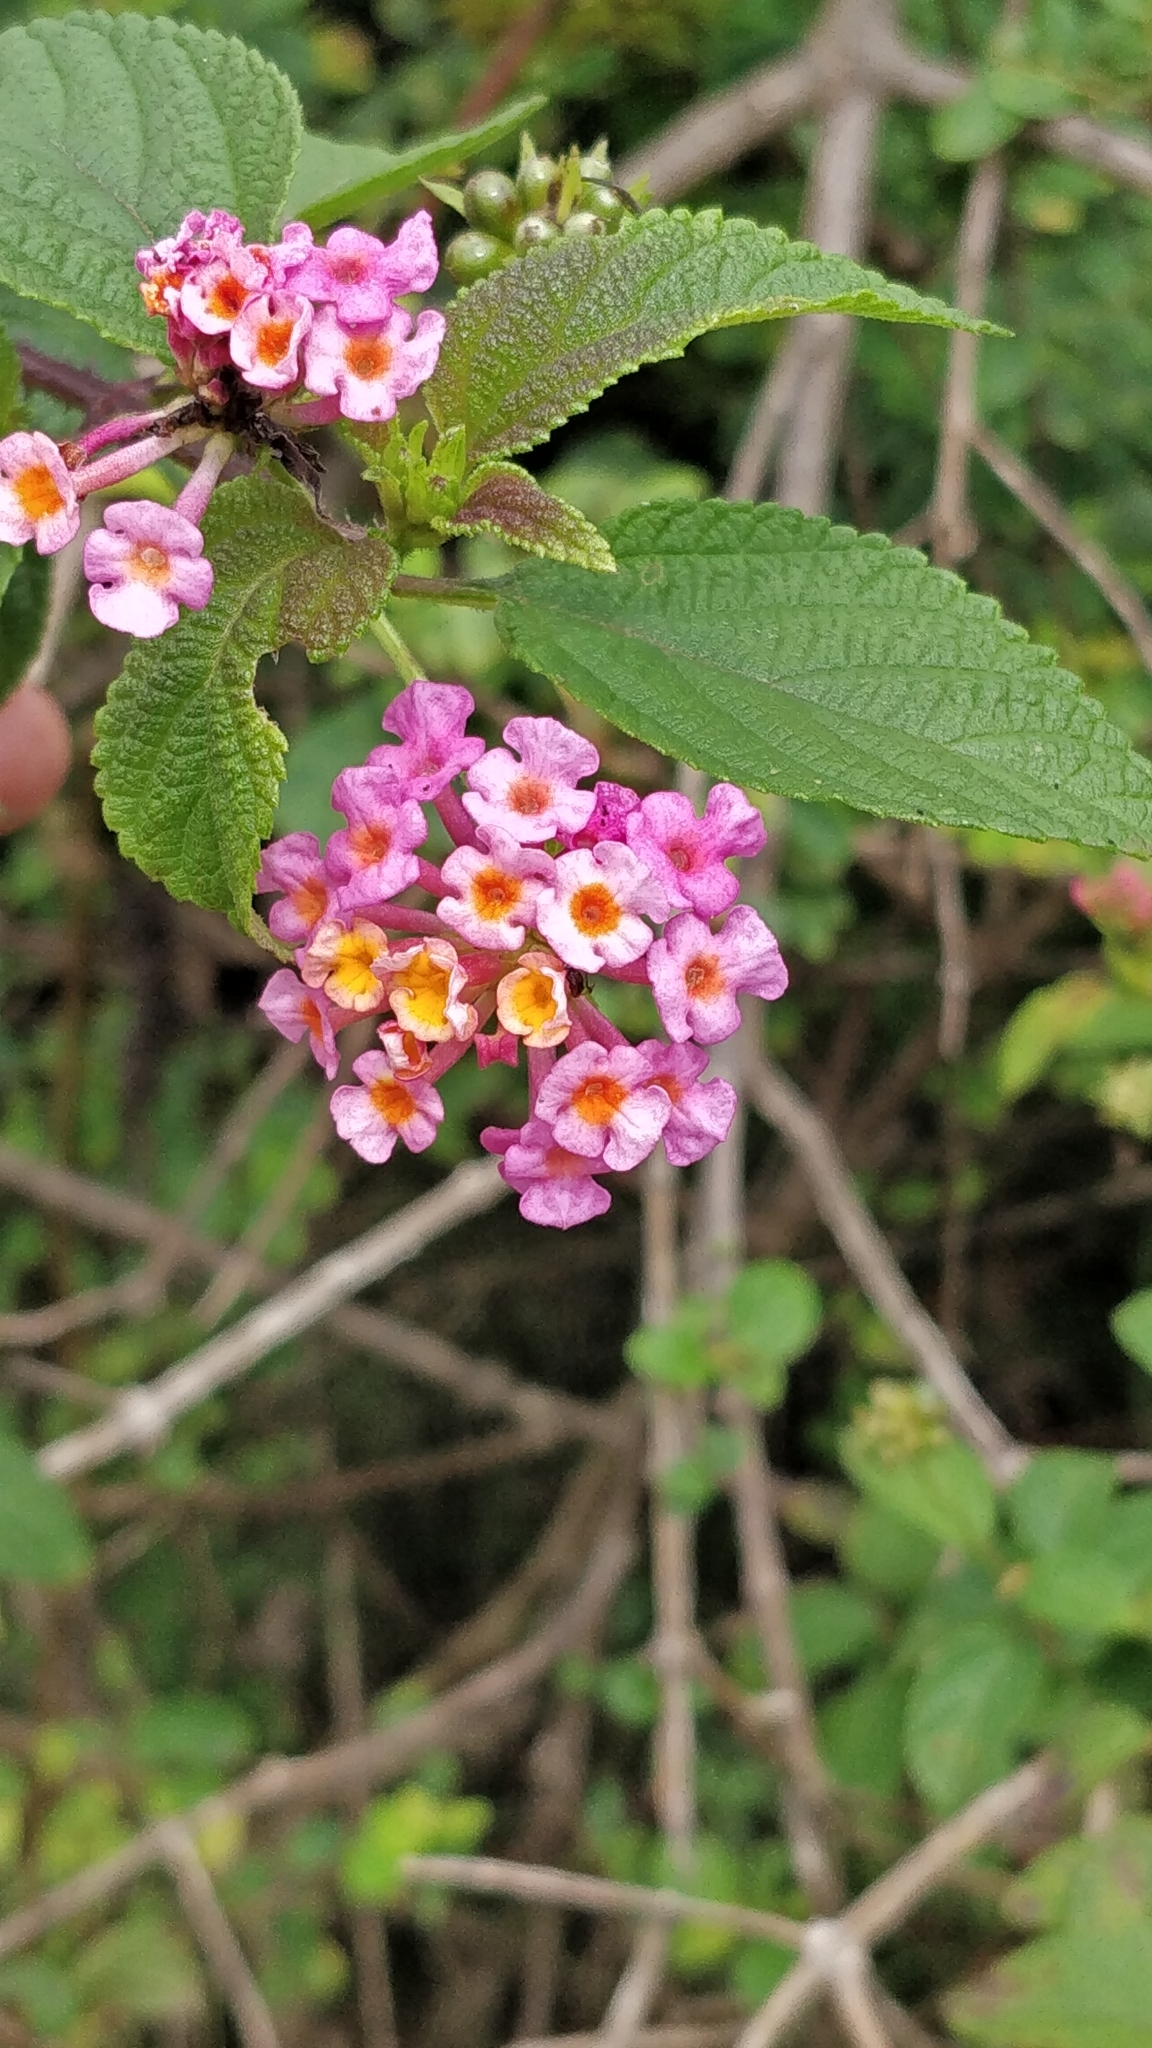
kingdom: Plantae
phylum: Tracheophyta
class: Magnoliopsida
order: Lamiales
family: Verbenaceae
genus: Lantana
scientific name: Lantana camara
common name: Lantana
